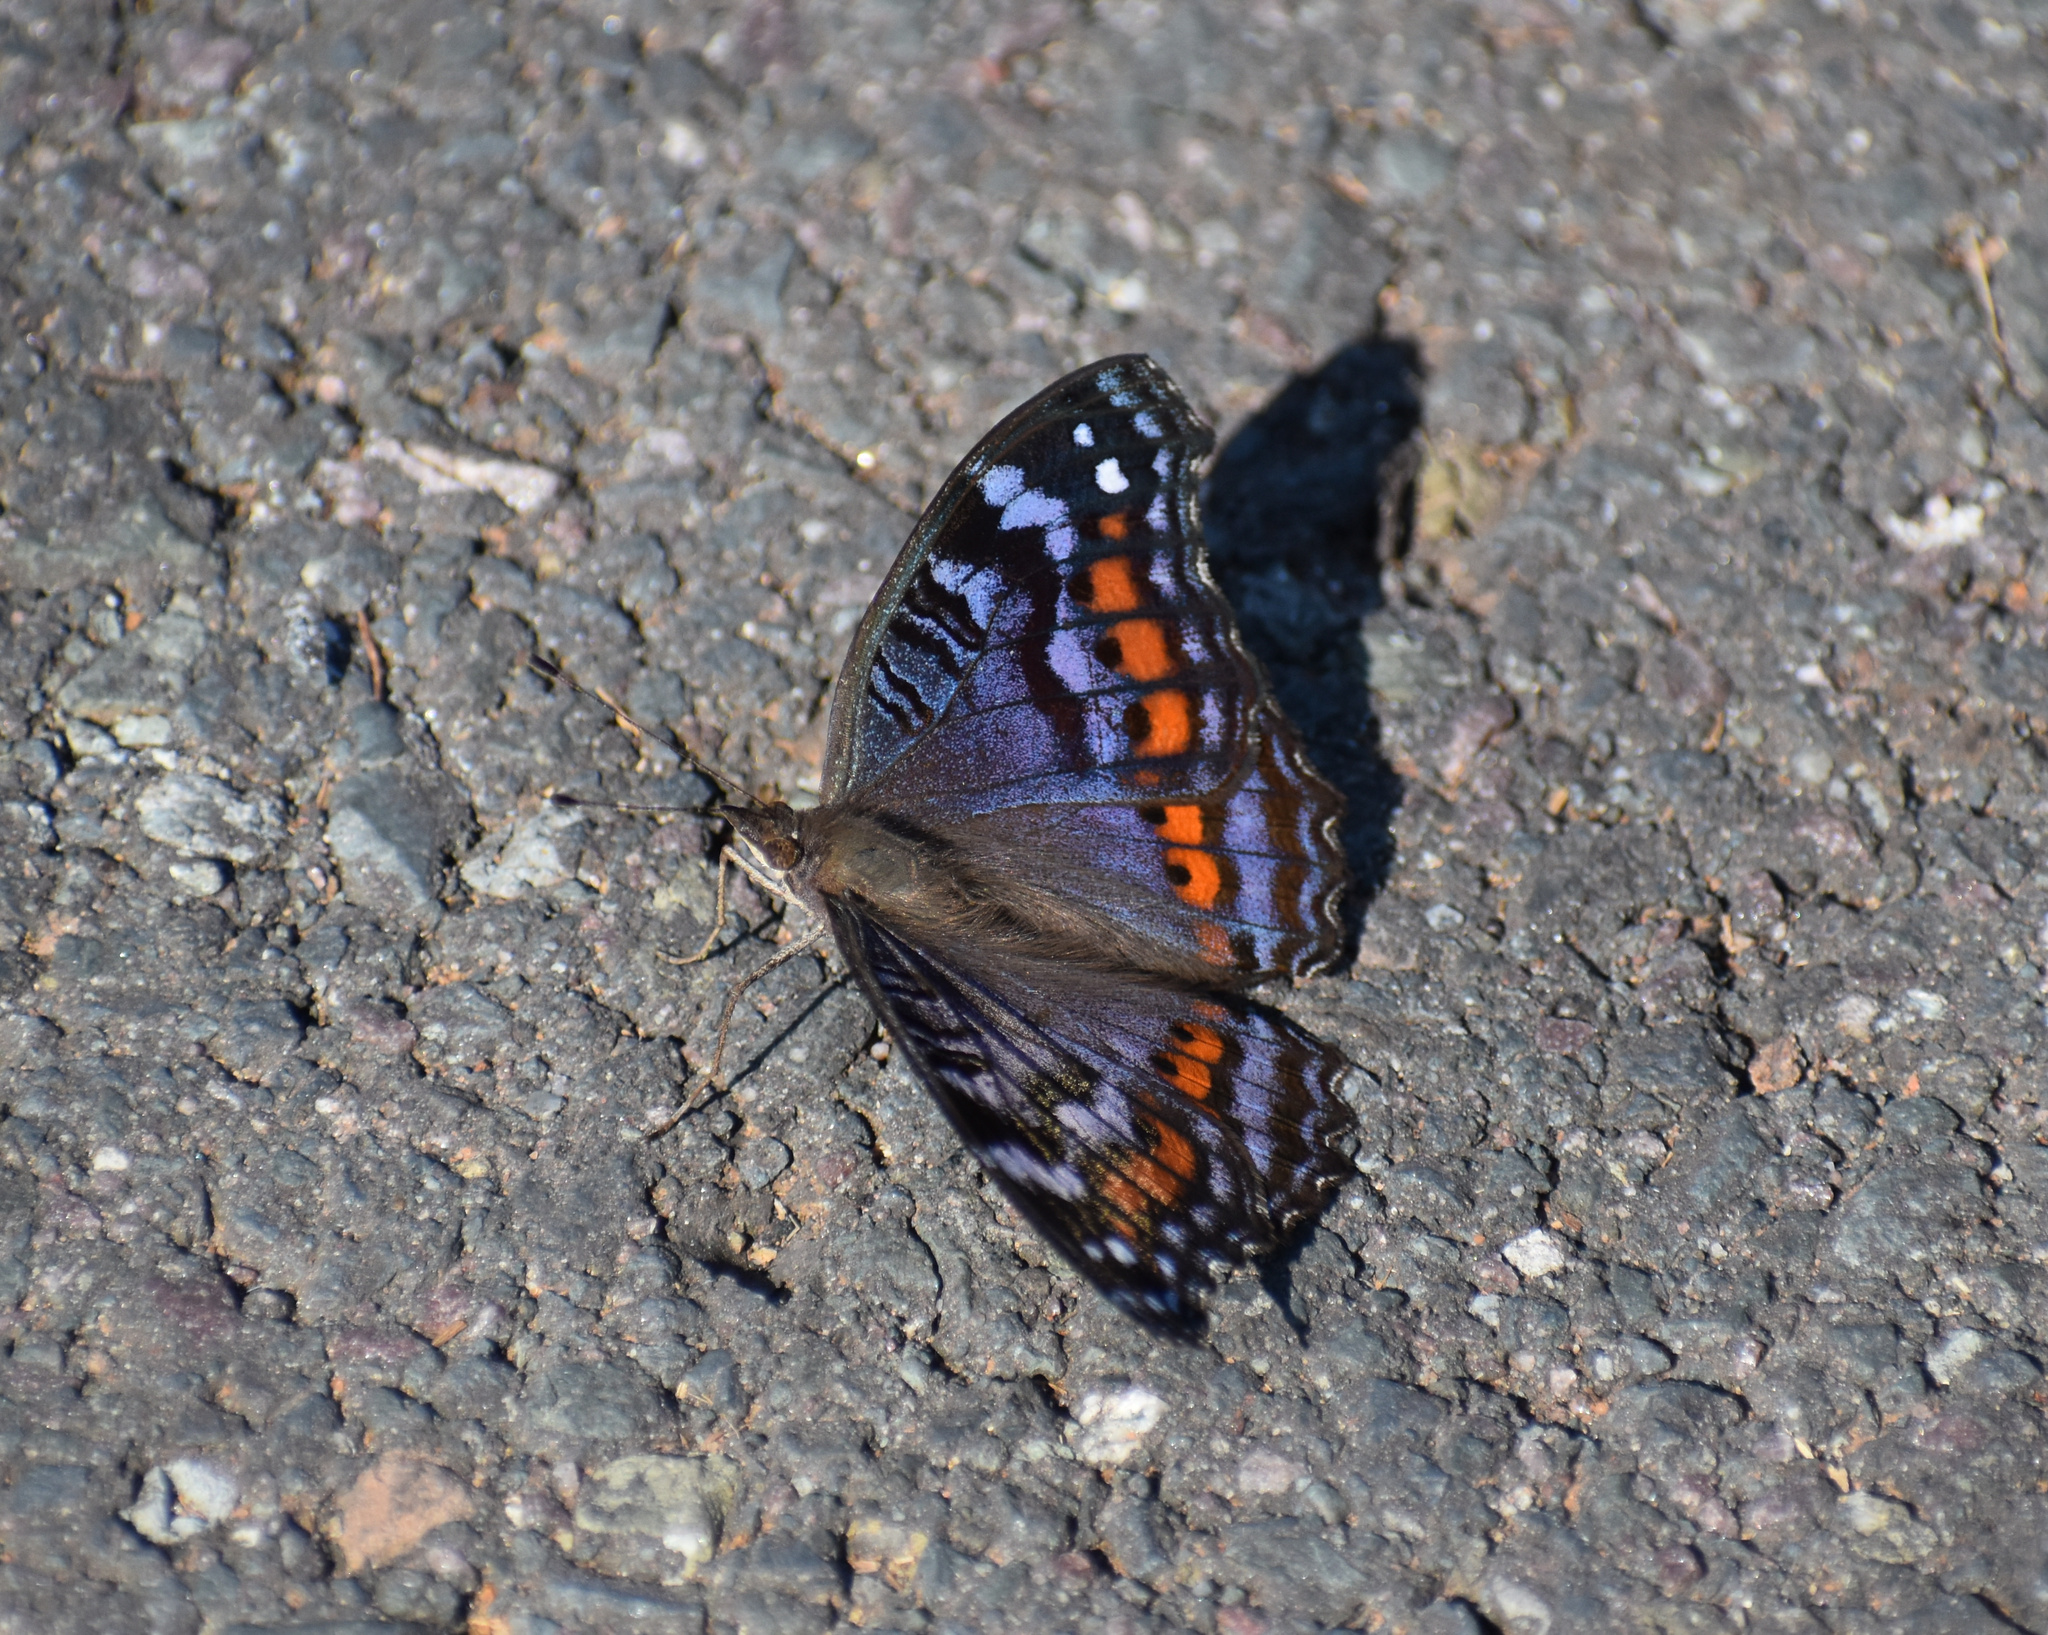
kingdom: Animalia
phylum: Arthropoda
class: Insecta
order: Lepidoptera
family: Nymphalidae
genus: Precis
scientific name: Precis octavia
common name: Gaudy commodore
